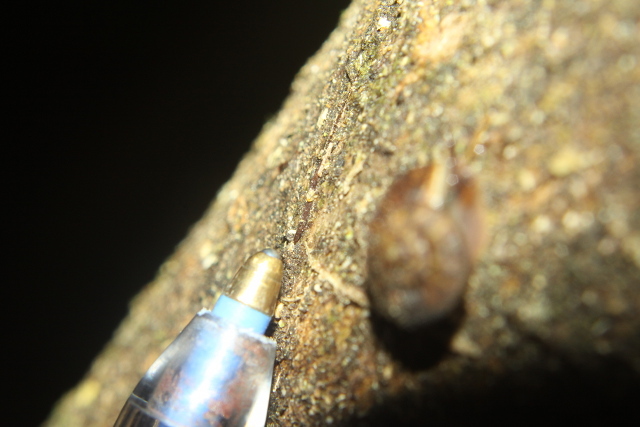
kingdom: Animalia
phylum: Mollusca
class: Gastropoda
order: Stylommatophora
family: Charopidae
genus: Thalassohelix
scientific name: Thalassohelix zelandiae
